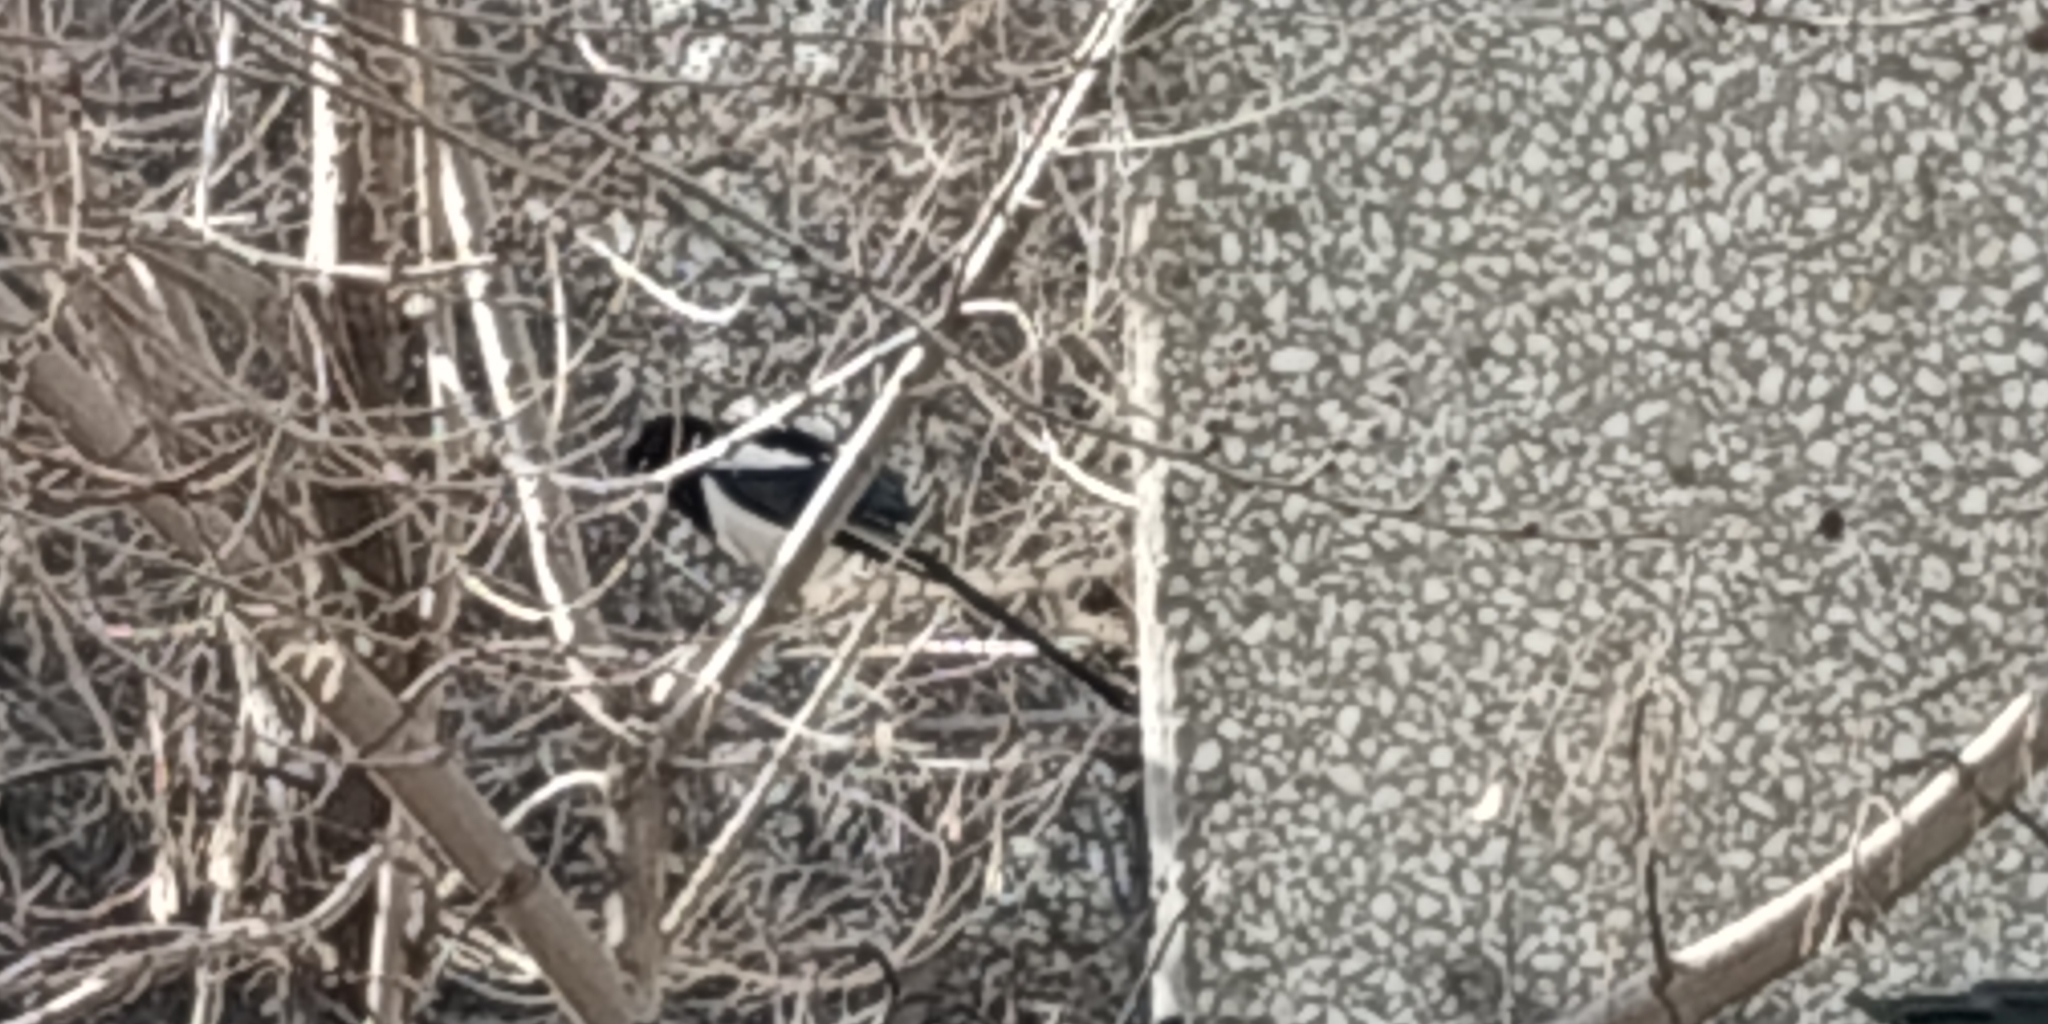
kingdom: Animalia
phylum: Chordata
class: Aves
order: Passeriformes
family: Corvidae
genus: Pica
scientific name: Pica pica
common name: Eurasian magpie
